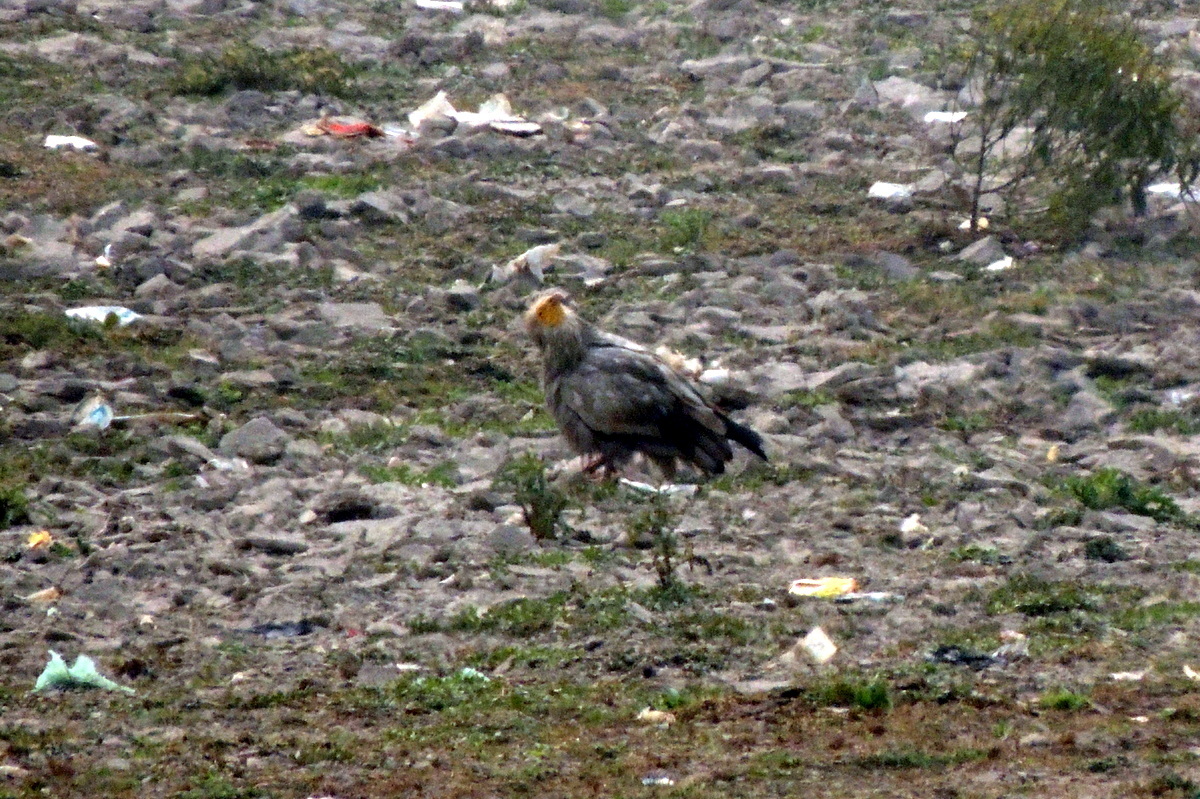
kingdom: Animalia
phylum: Chordata
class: Aves
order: Accipitriformes
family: Accipitridae
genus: Neophron
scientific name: Neophron percnopterus
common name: Egyptian vulture
